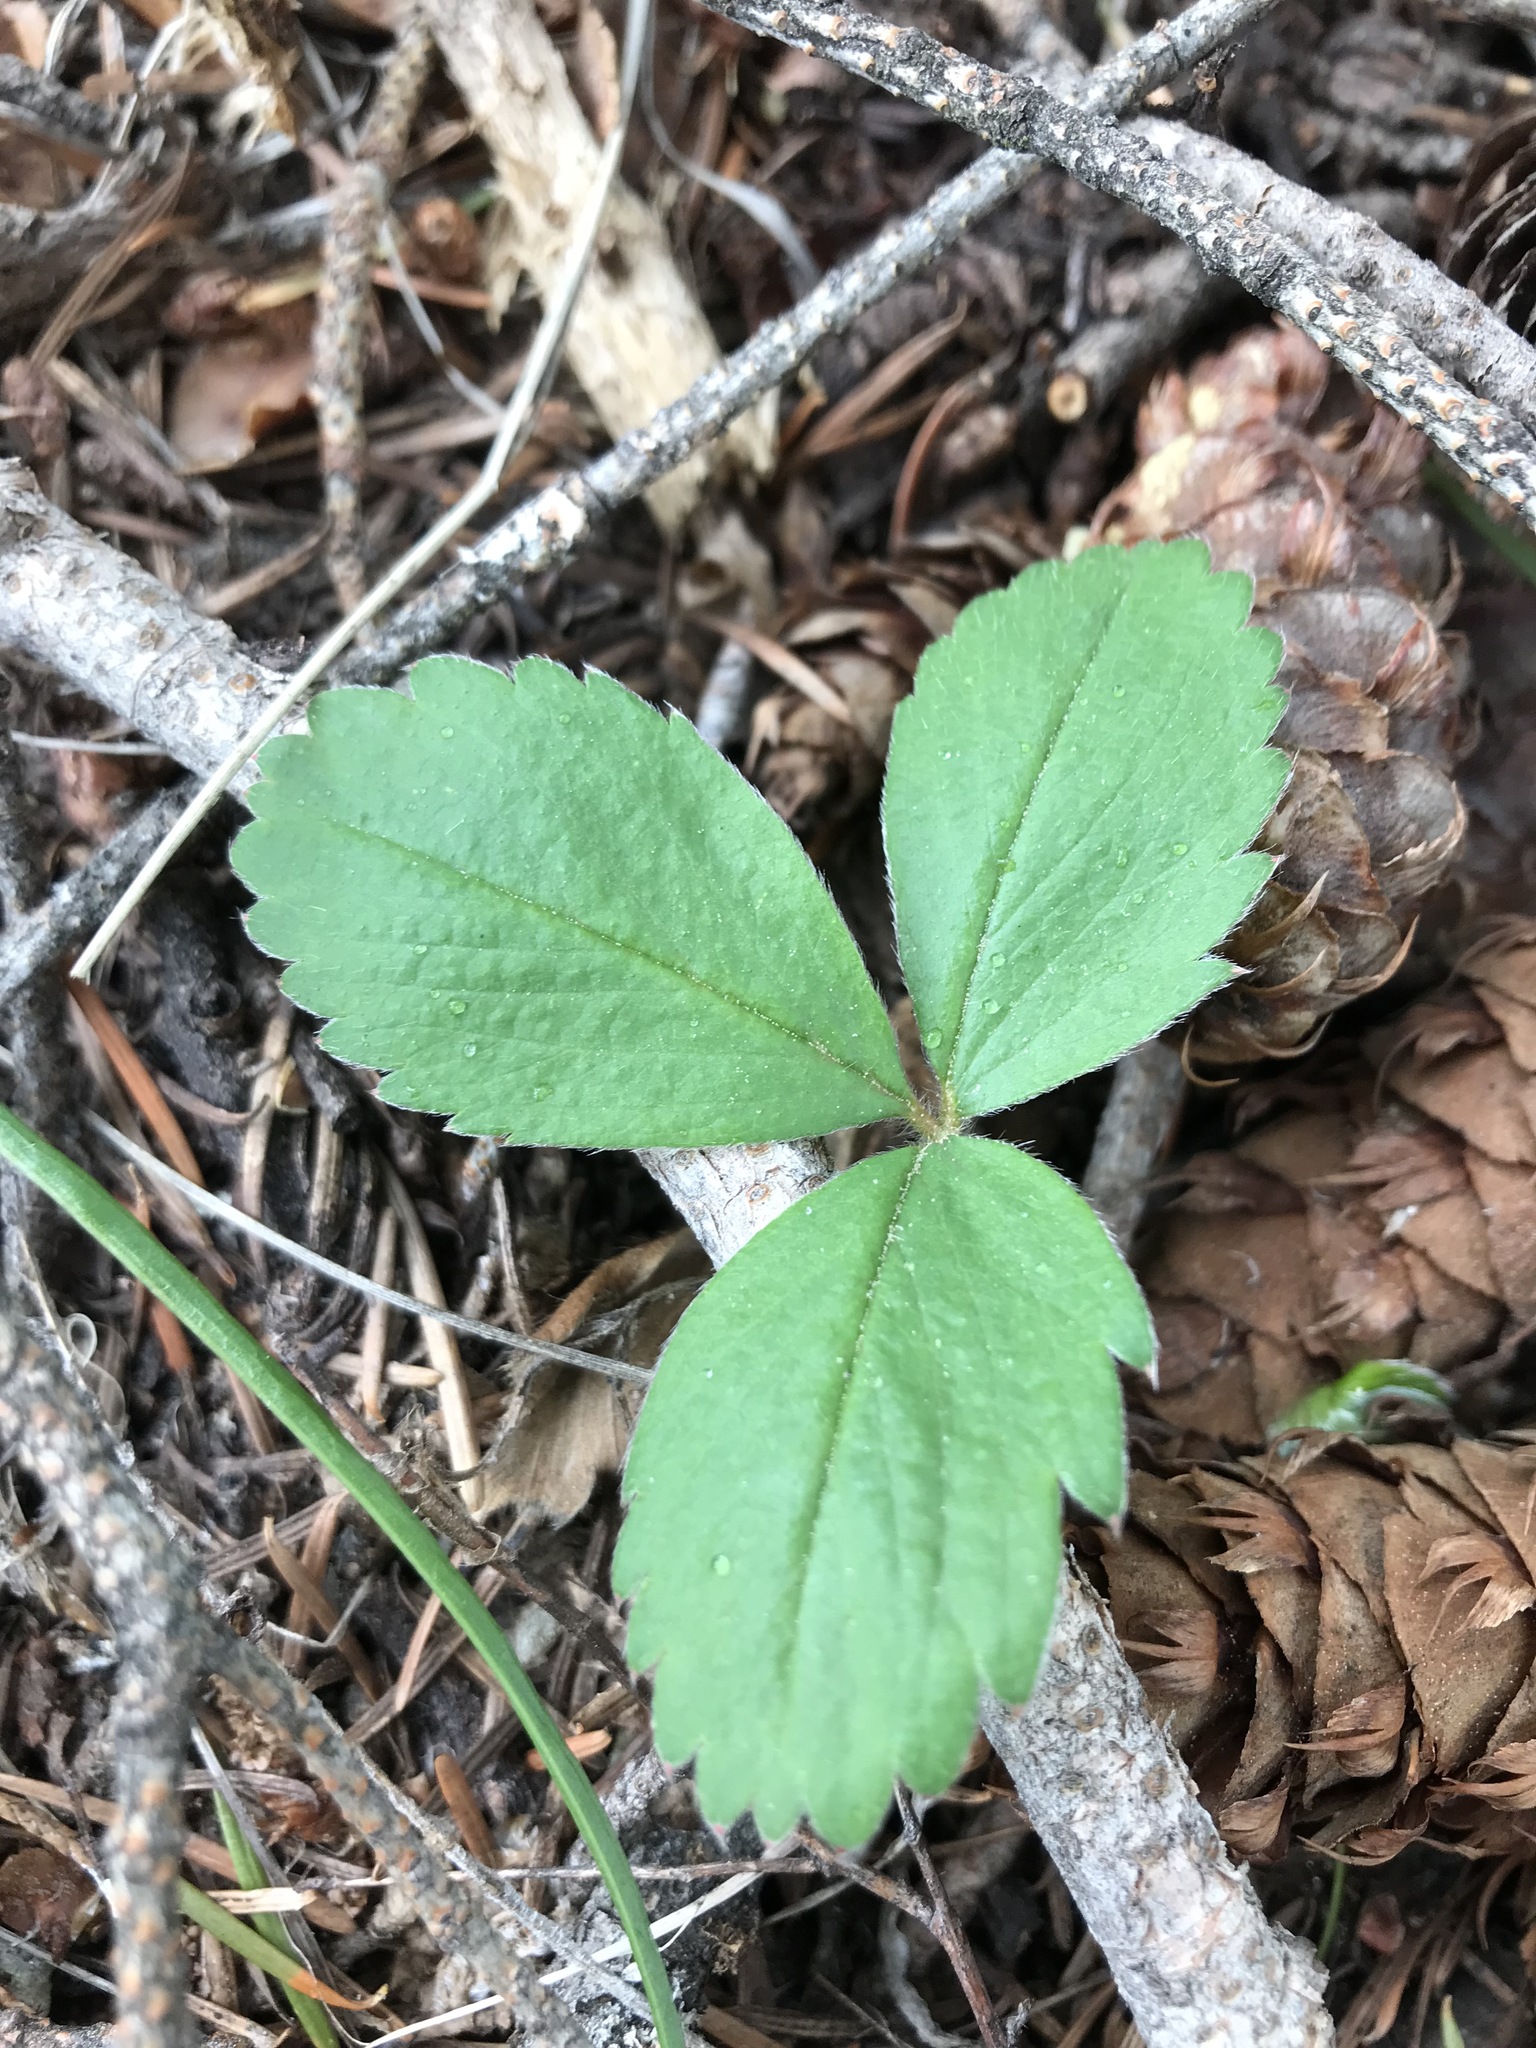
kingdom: Plantae
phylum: Tracheophyta
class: Magnoliopsida
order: Rosales
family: Rosaceae
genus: Fragaria
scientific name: Fragaria virginiana
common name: Thickleaved wild strawberry
